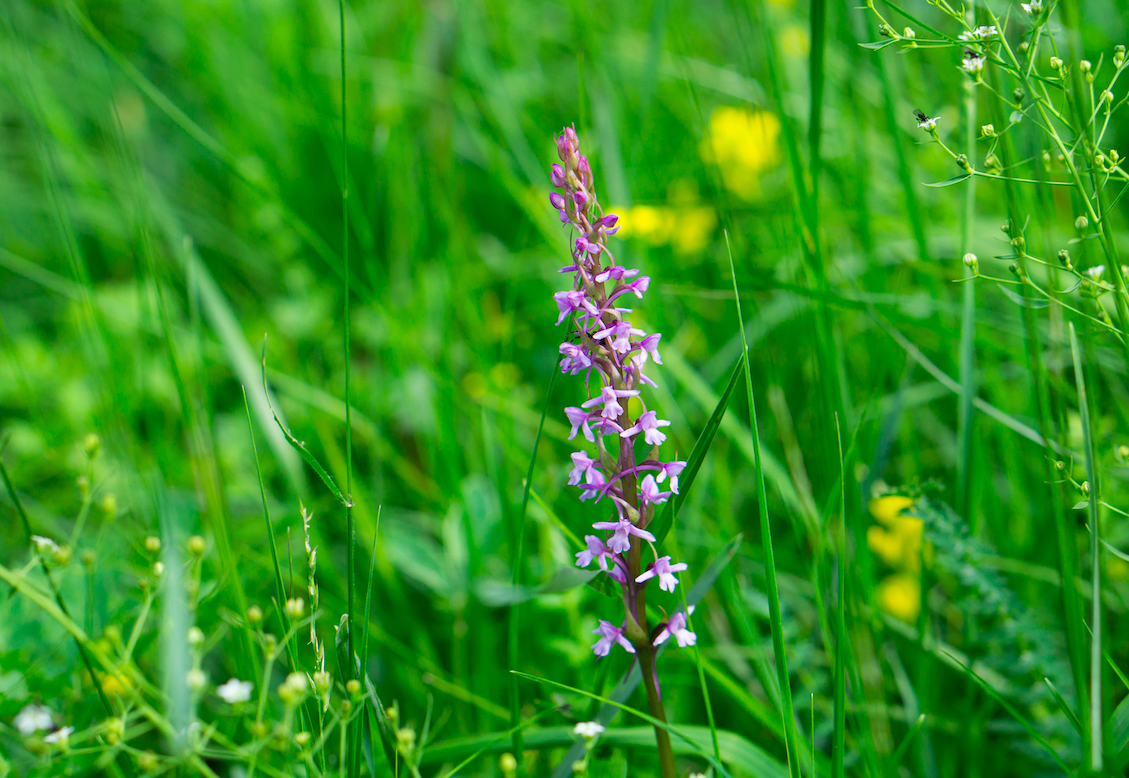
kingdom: Plantae
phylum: Tracheophyta
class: Liliopsida
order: Asparagales
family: Orchidaceae
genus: Gymnadenia
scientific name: Gymnadenia conopsea
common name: Fragrant orchid
